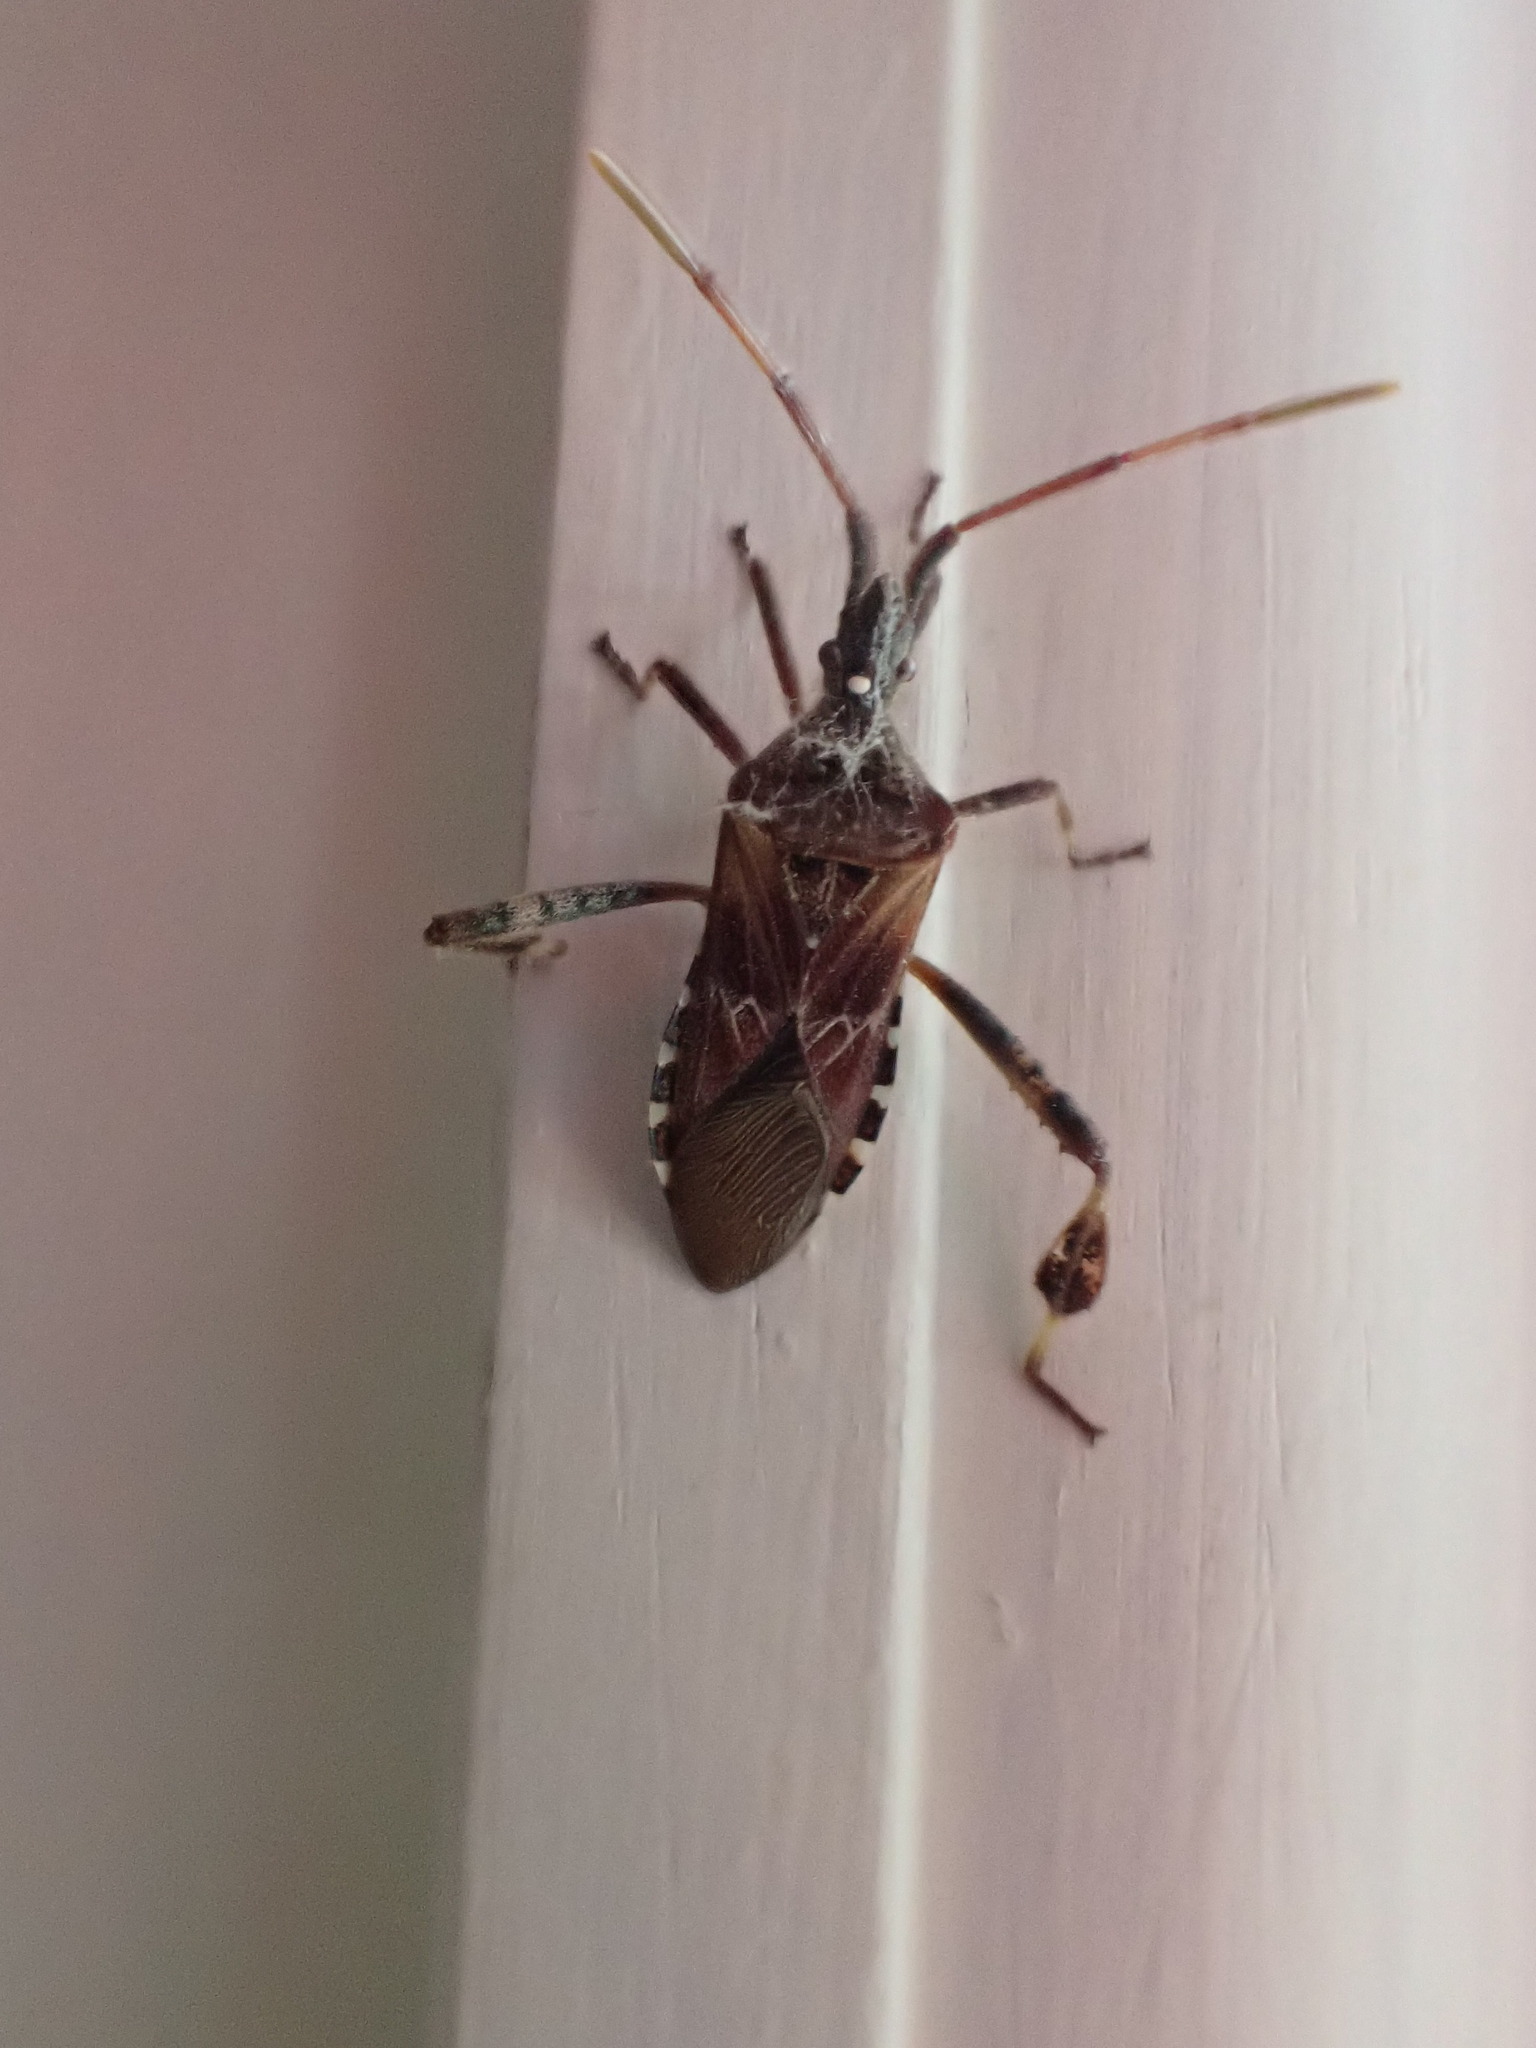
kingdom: Animalia
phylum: Arthropoda
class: Insecta
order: Hemiptera
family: Coreidae
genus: Leptoglossus
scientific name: Leptoglossus occidentalis
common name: Western conifer-seed bug
